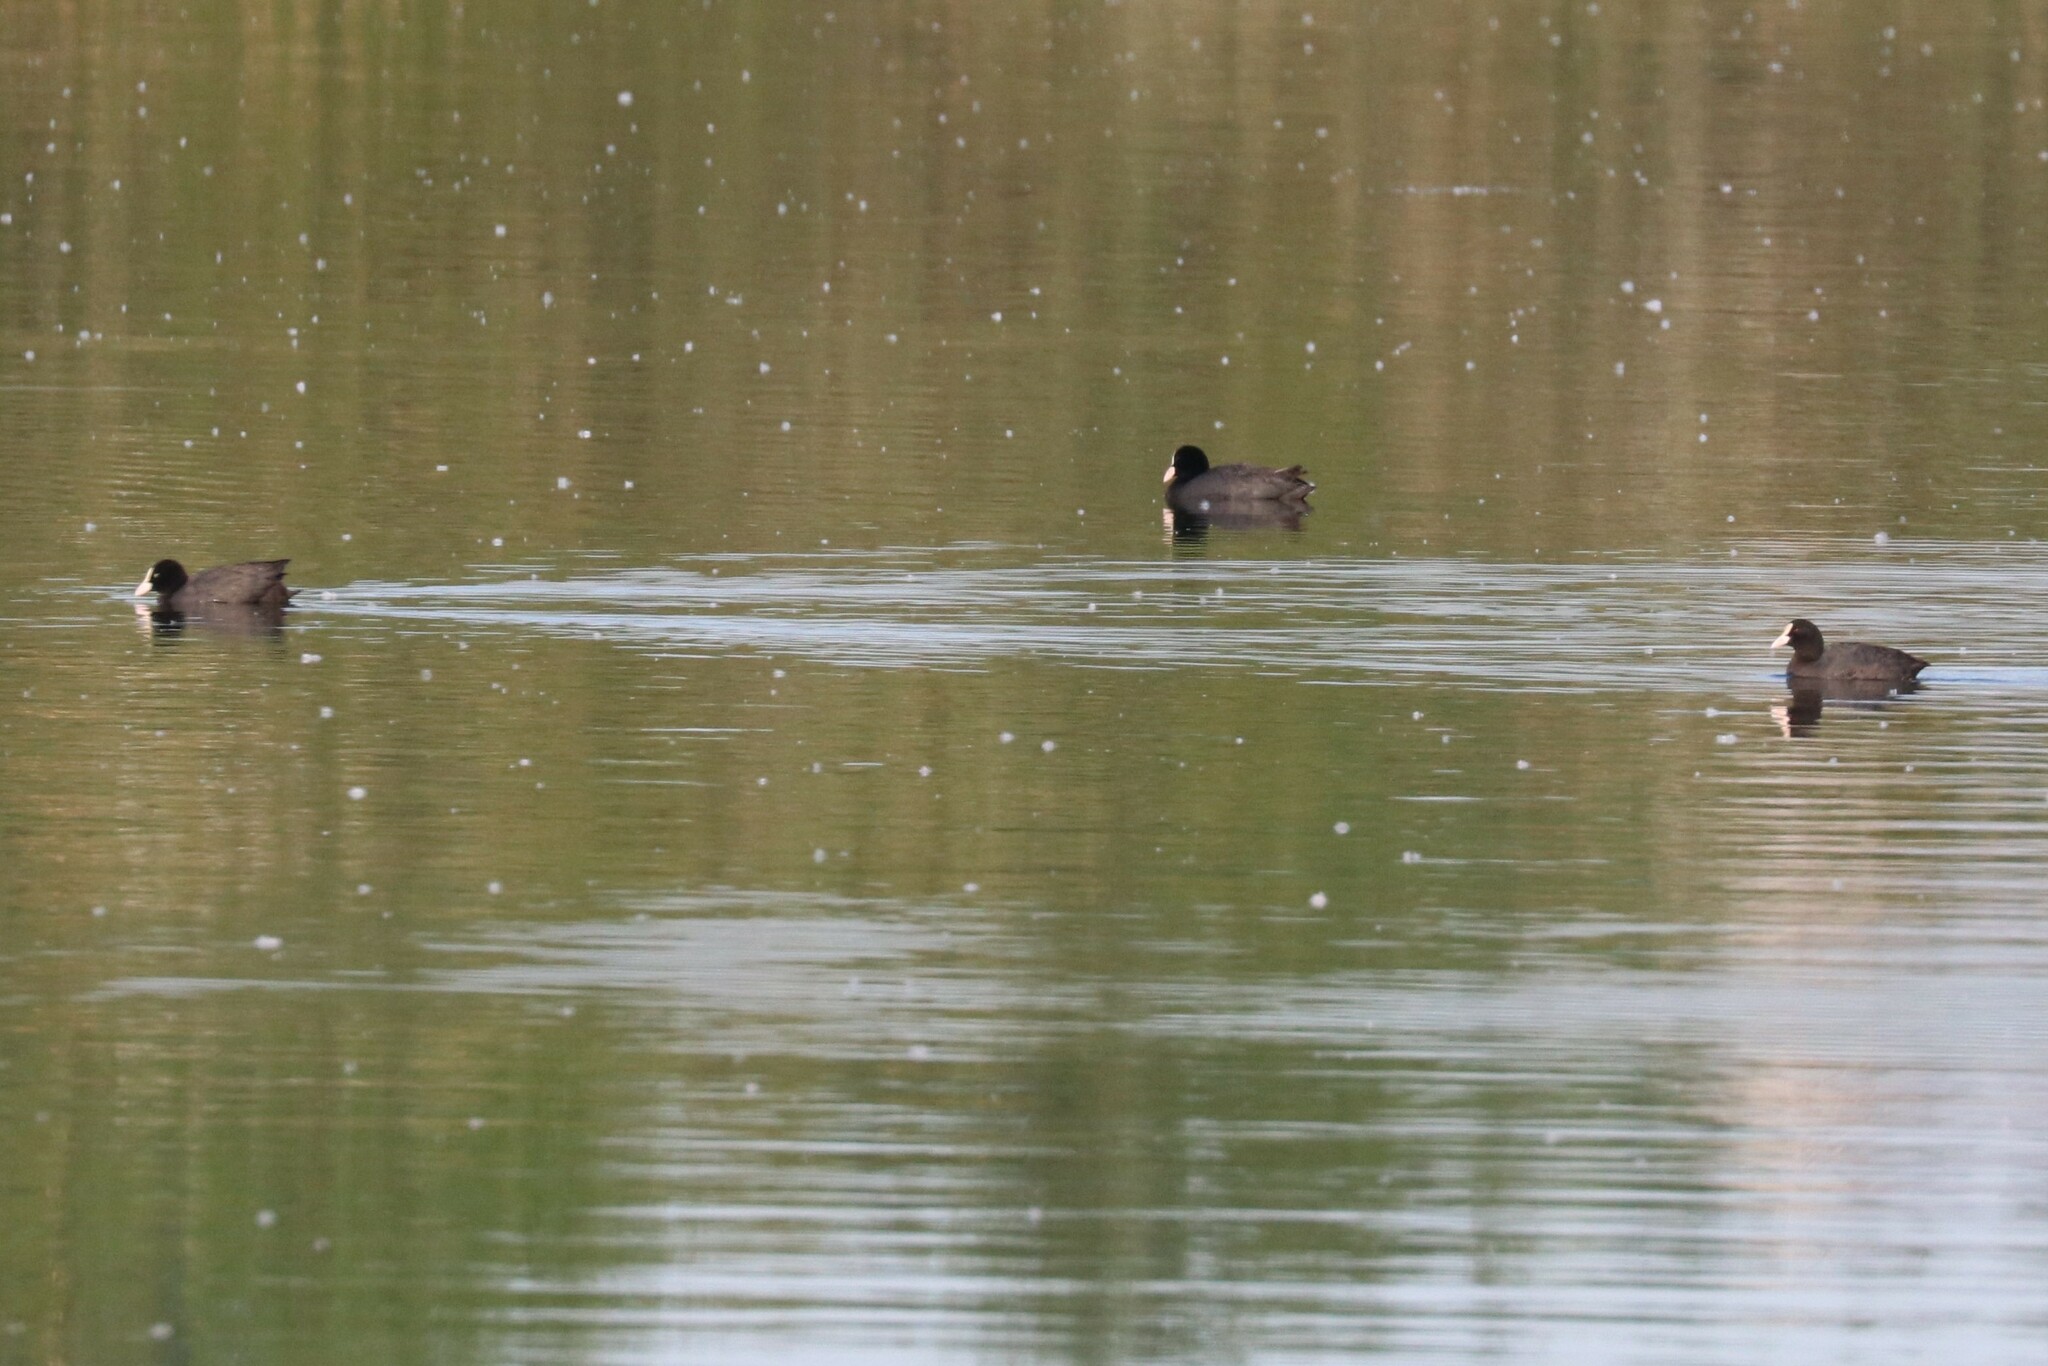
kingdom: Animalia
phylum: Chordata
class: Aves
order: Gruiformes
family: Rallidae
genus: Fulica
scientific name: Fulica atra
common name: Eurasian coot
